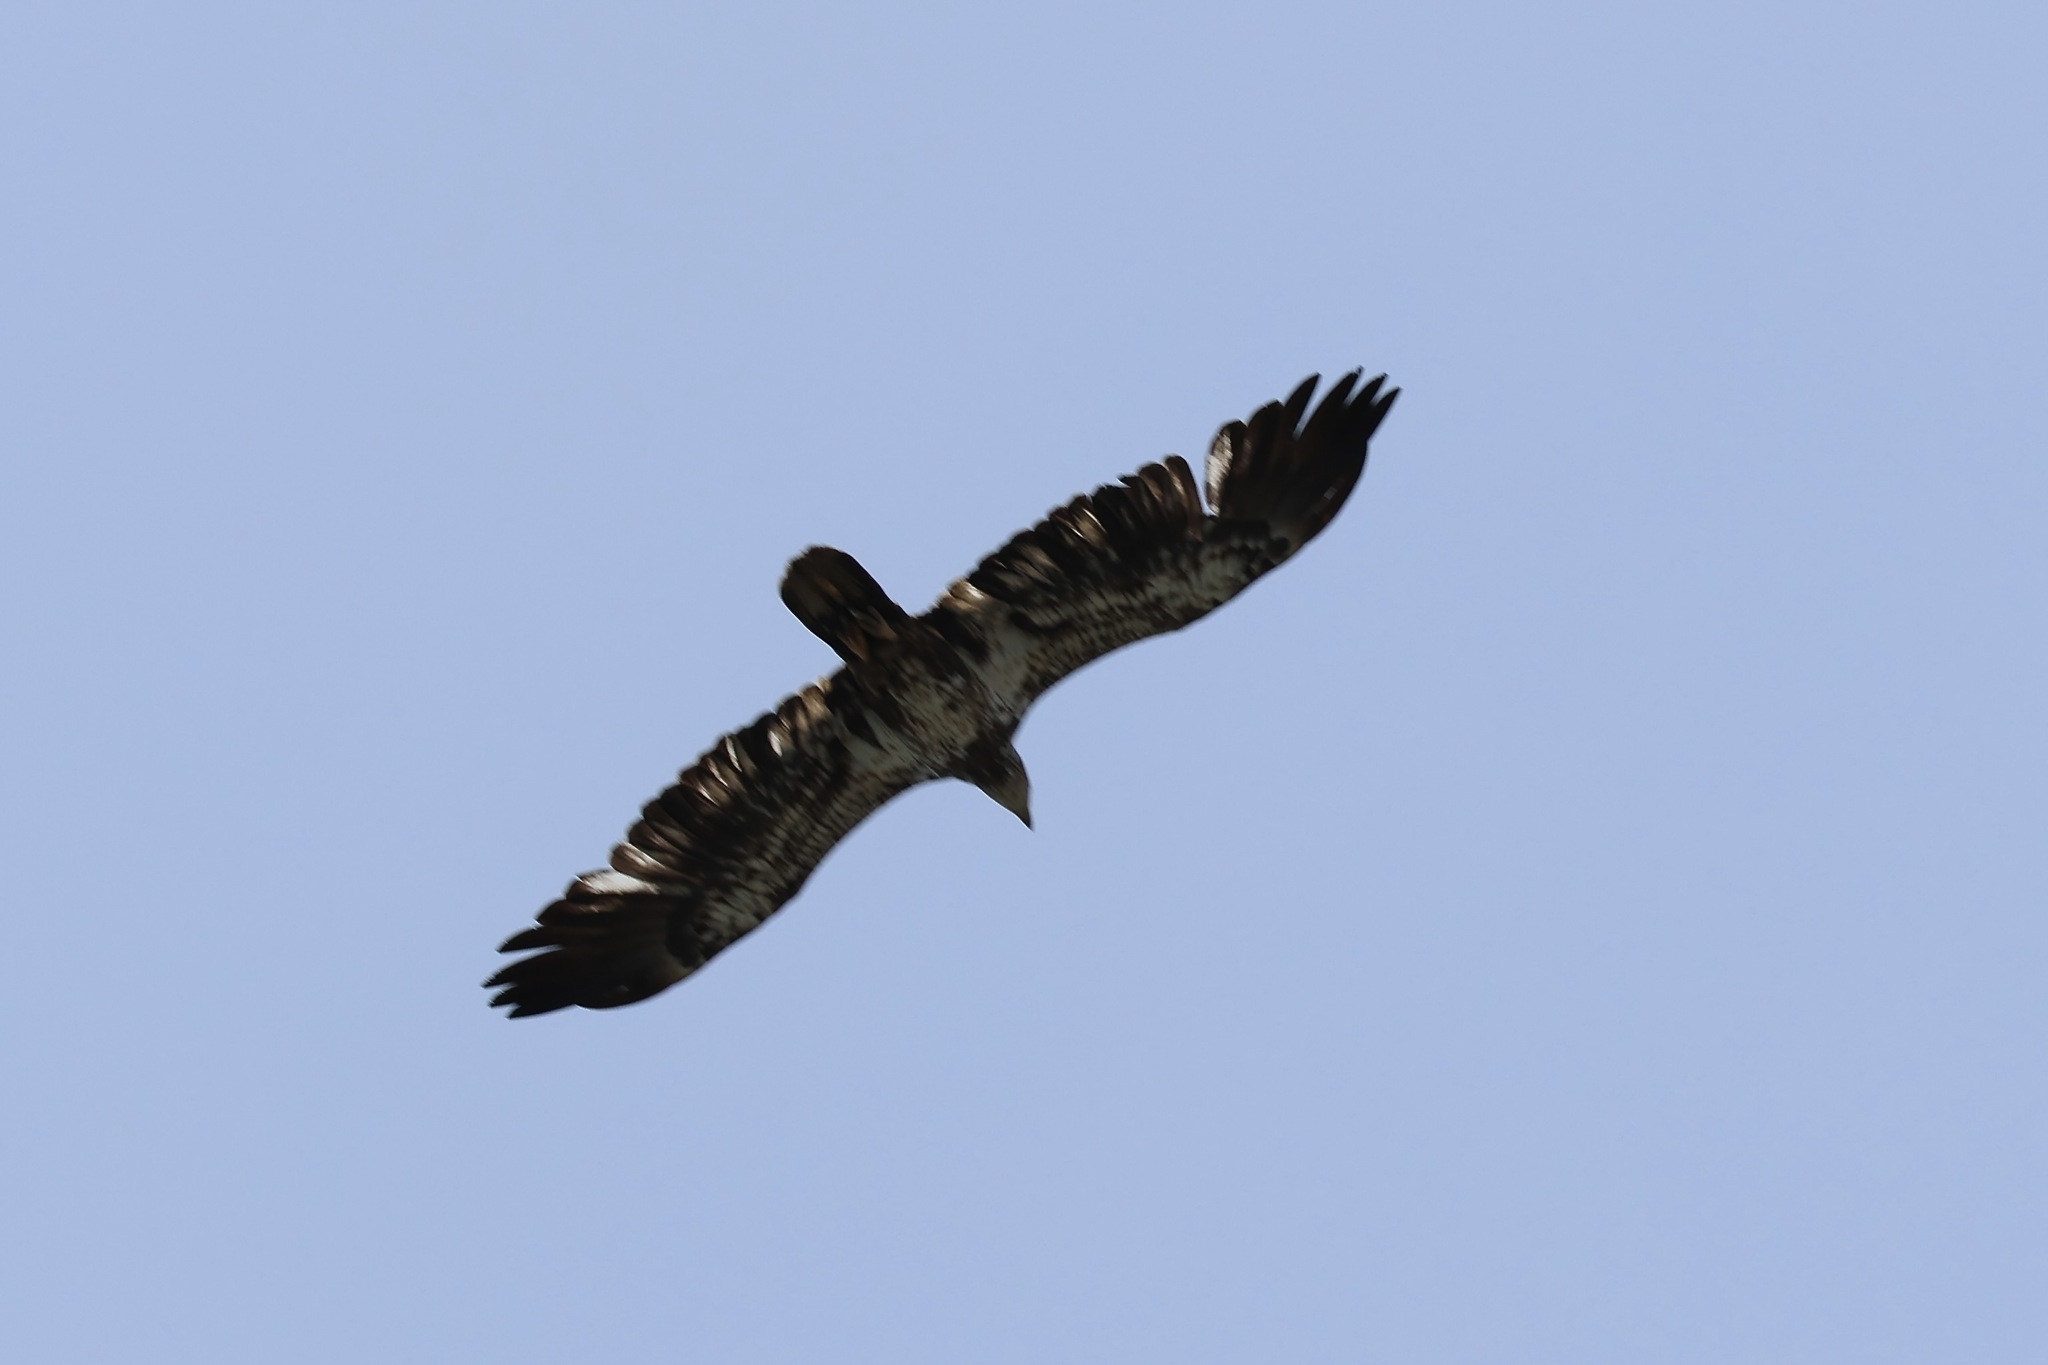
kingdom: Animalia
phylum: Chordata
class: Aves
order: Accipitriformes
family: Accipitridae
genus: Haliaeetus
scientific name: Haliaeetus leucocephalus
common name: Bald eagle
